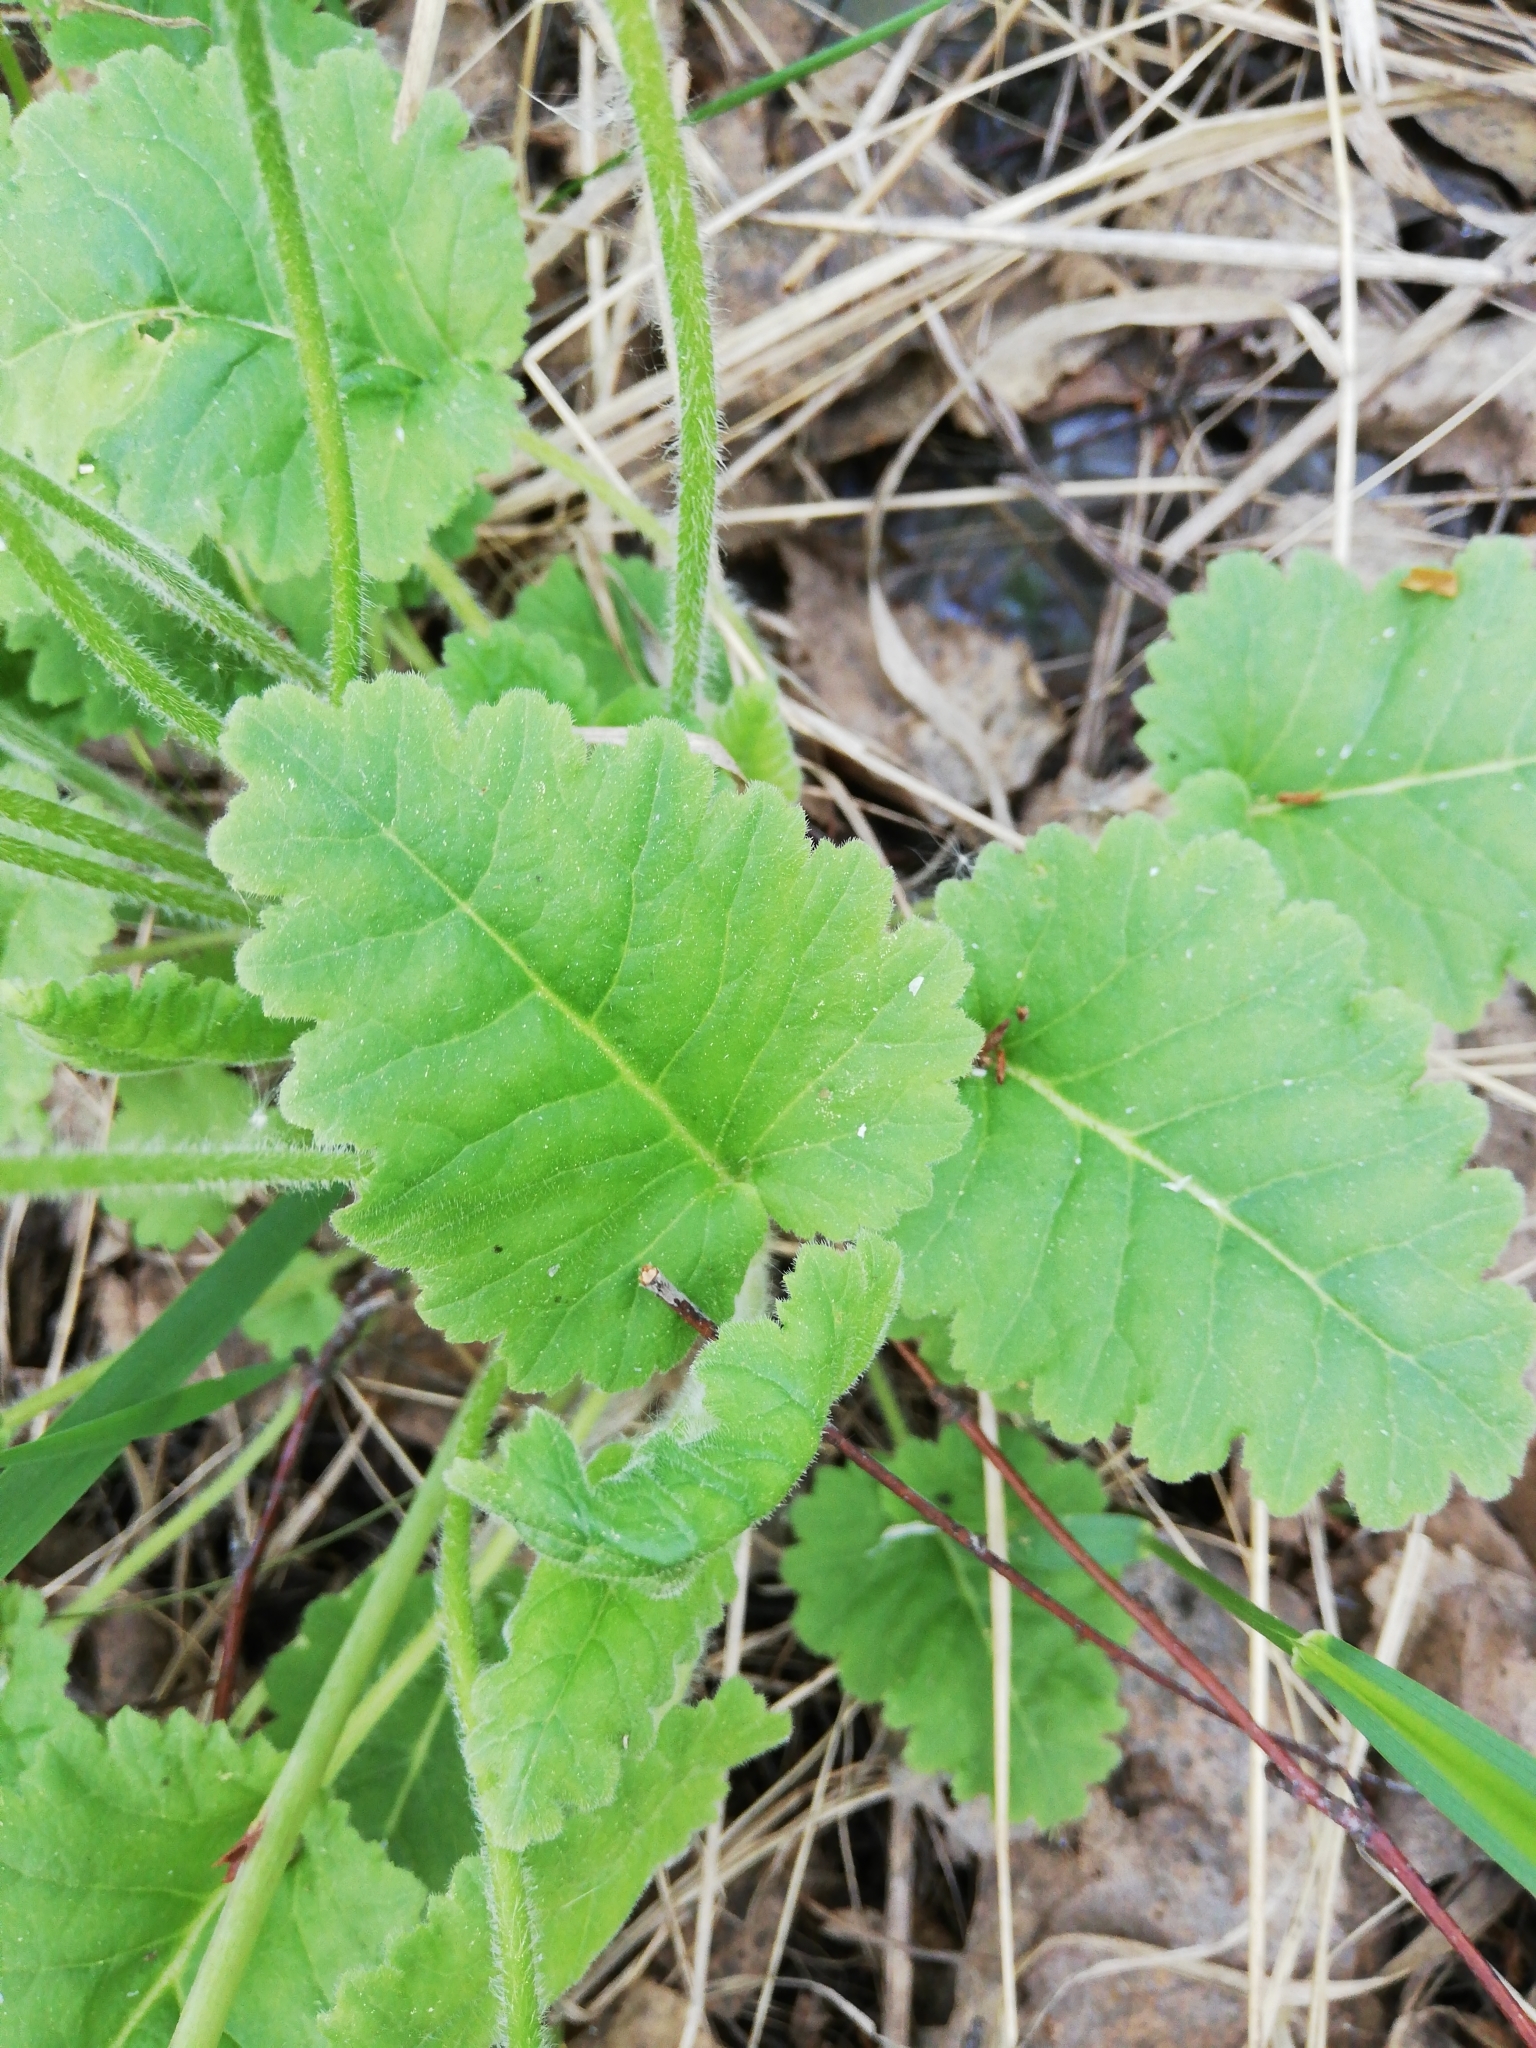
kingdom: Plantae
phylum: Tracheophyta
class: Magnoliopsida
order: Ericales
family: Primulaceae
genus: Primula
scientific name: Primula cortusoides
